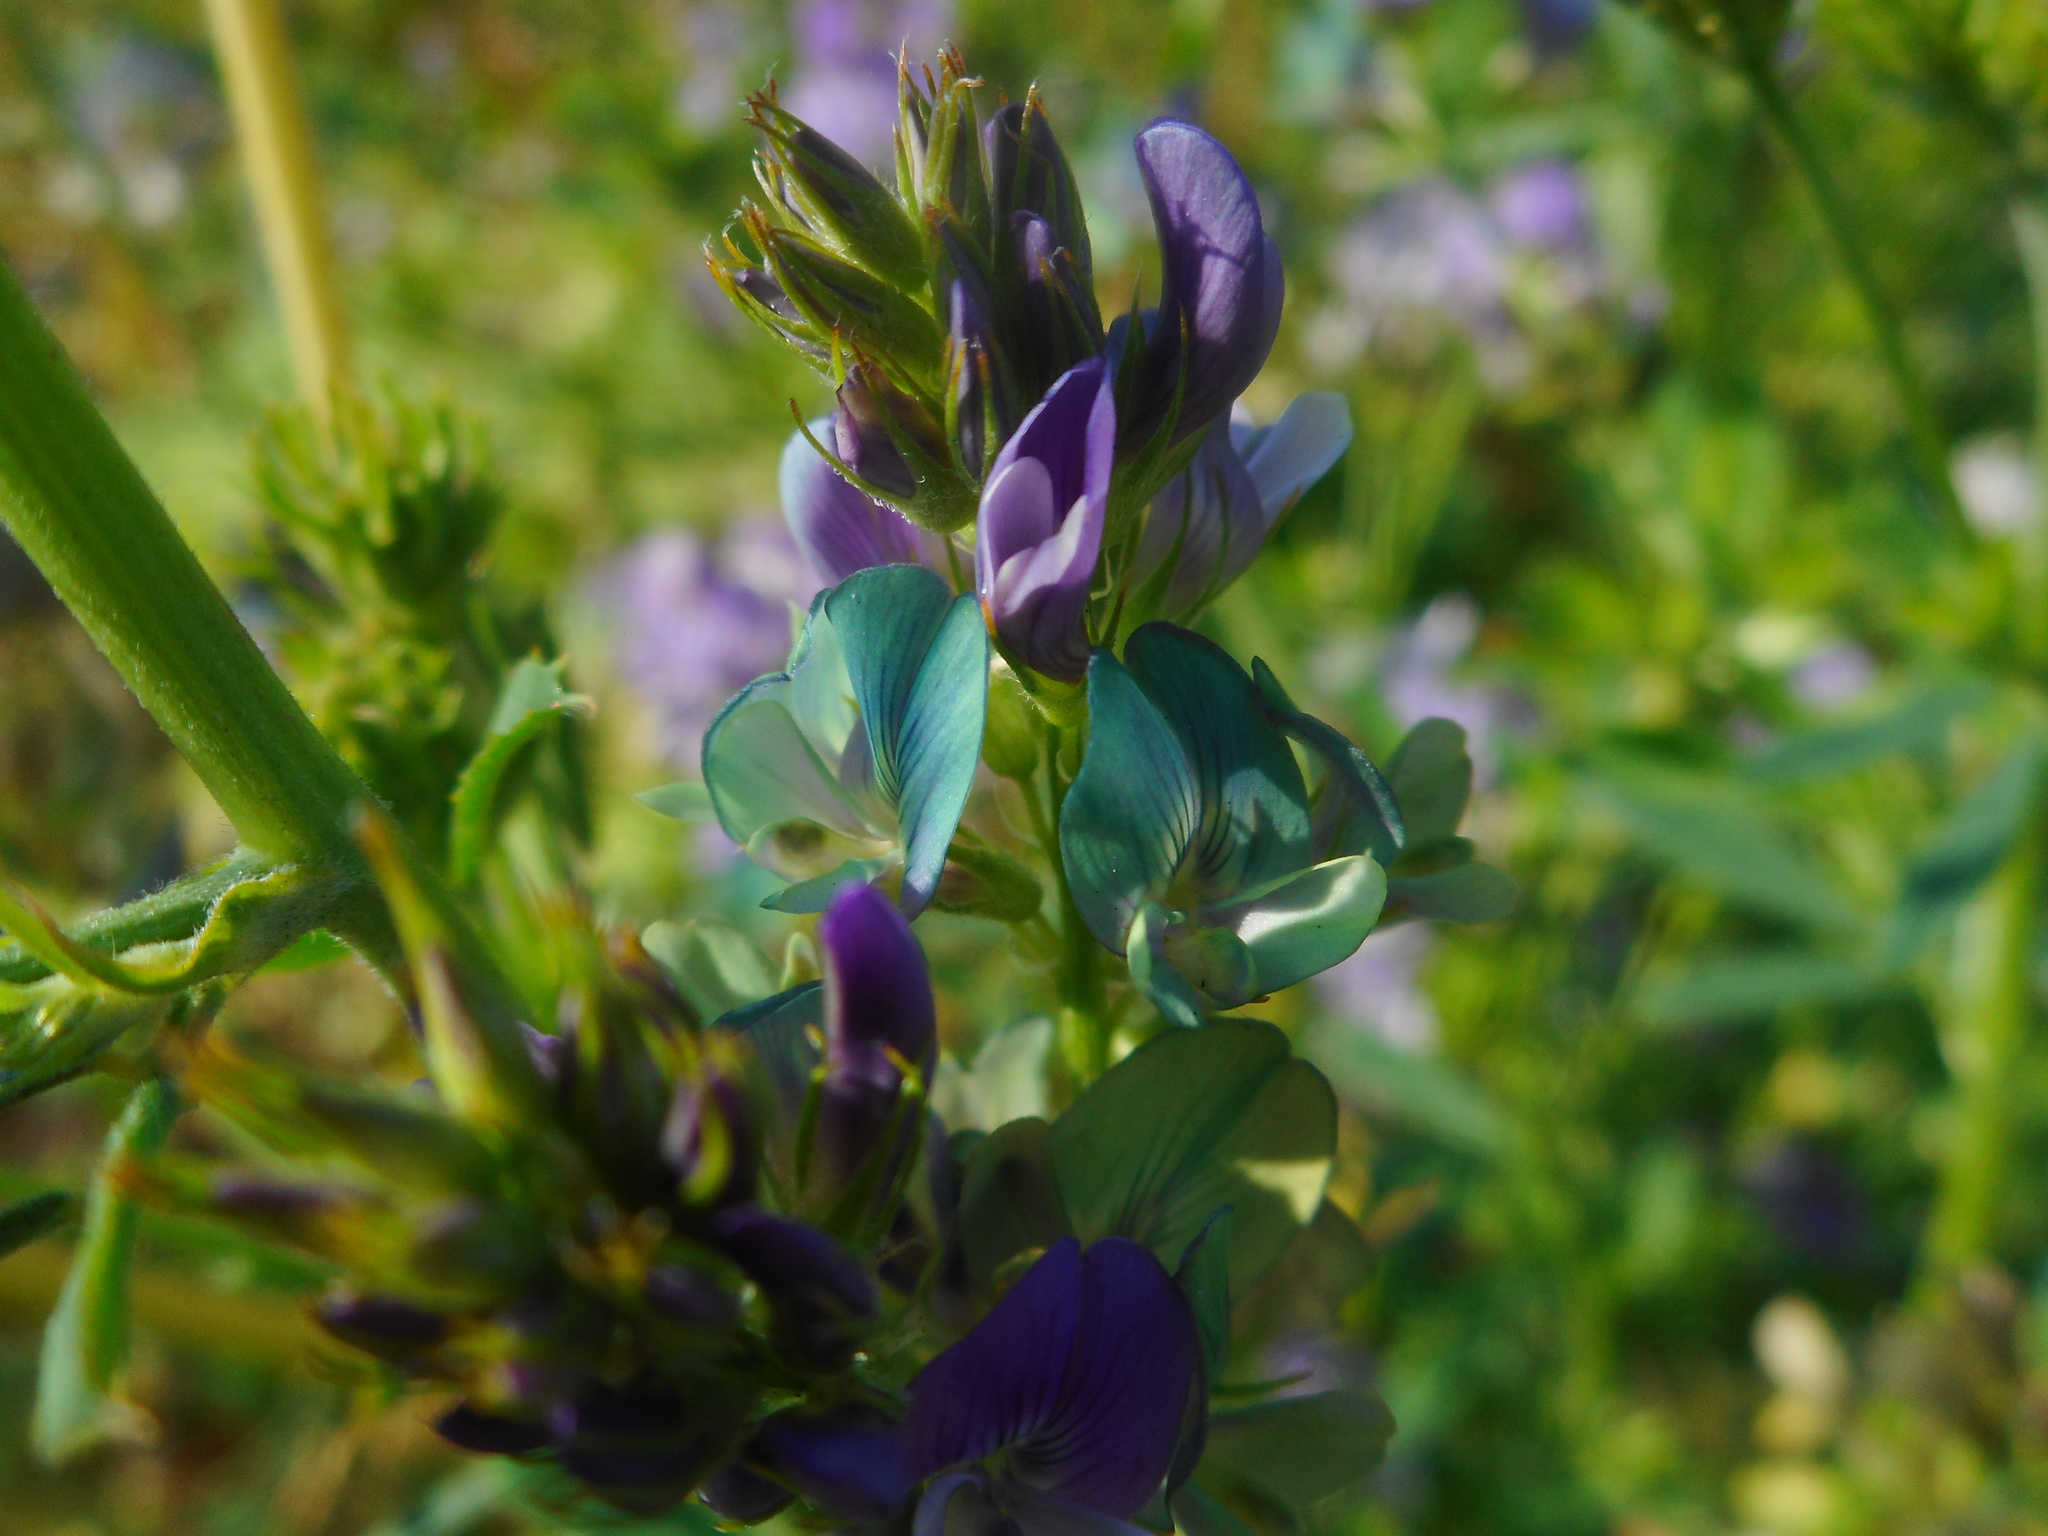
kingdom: Plantae
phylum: Tracheophyta
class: Magnoliopsida
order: Fabales
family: Fabaceae
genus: Medicago
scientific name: Medicago varia
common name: Sand lucerne
